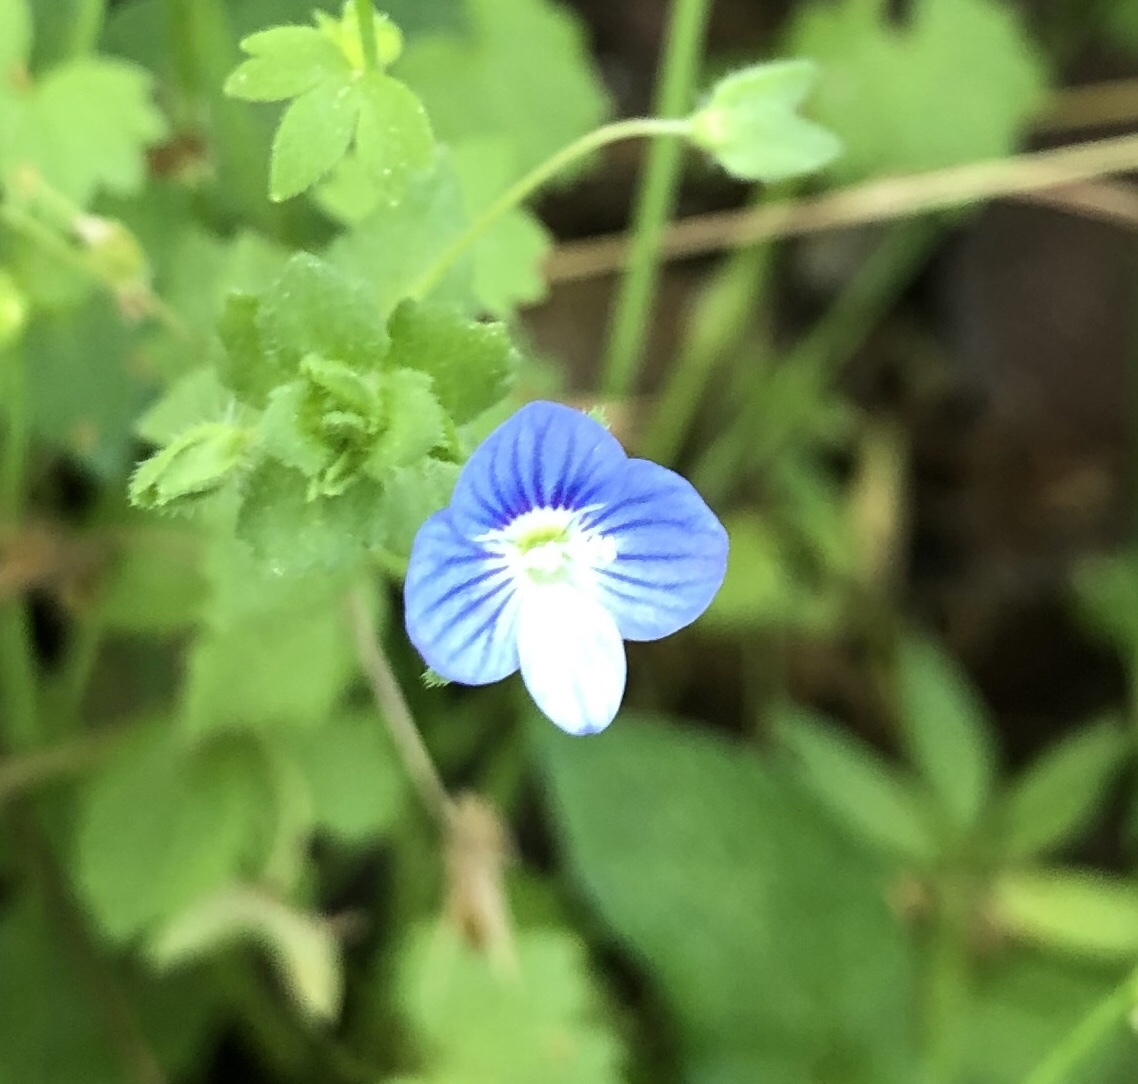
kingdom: Plantae
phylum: Tracheophyta
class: Magnoliopsida
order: Lamiales
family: Plantaginaceae
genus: Veronica
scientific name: Veronica persica
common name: Common field-speedwell
